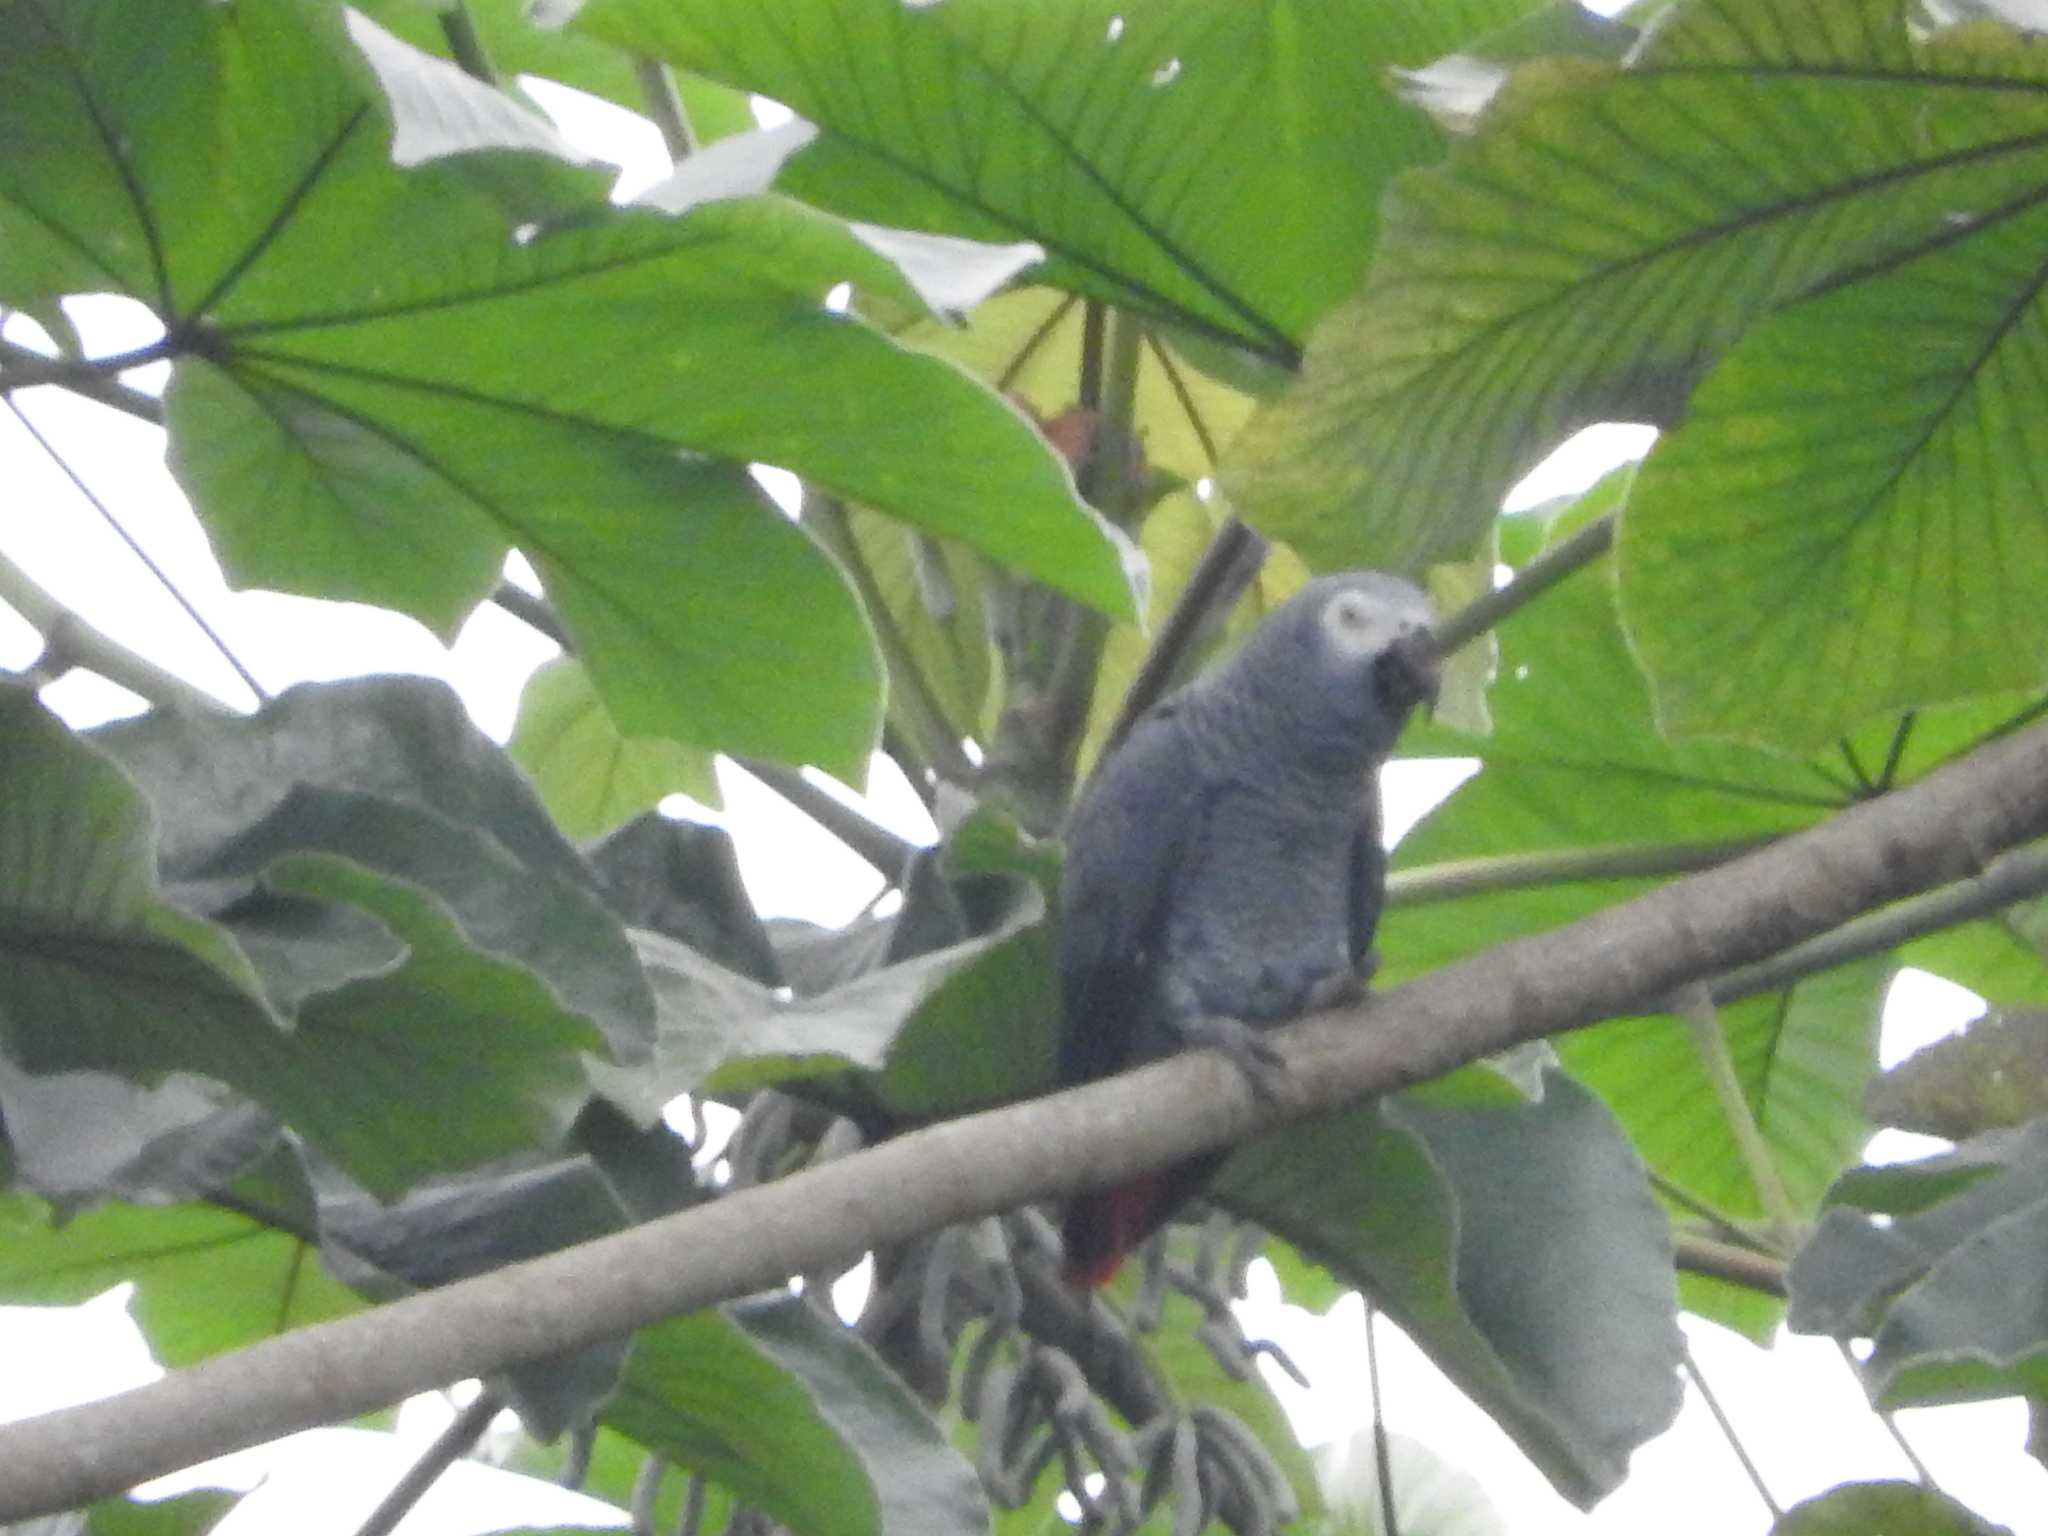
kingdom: Animalia
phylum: Chordata
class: Aves
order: Psittaciformes
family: Psittacidae
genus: Psittacus
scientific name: Psittacus erithacus
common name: Grey parrot
